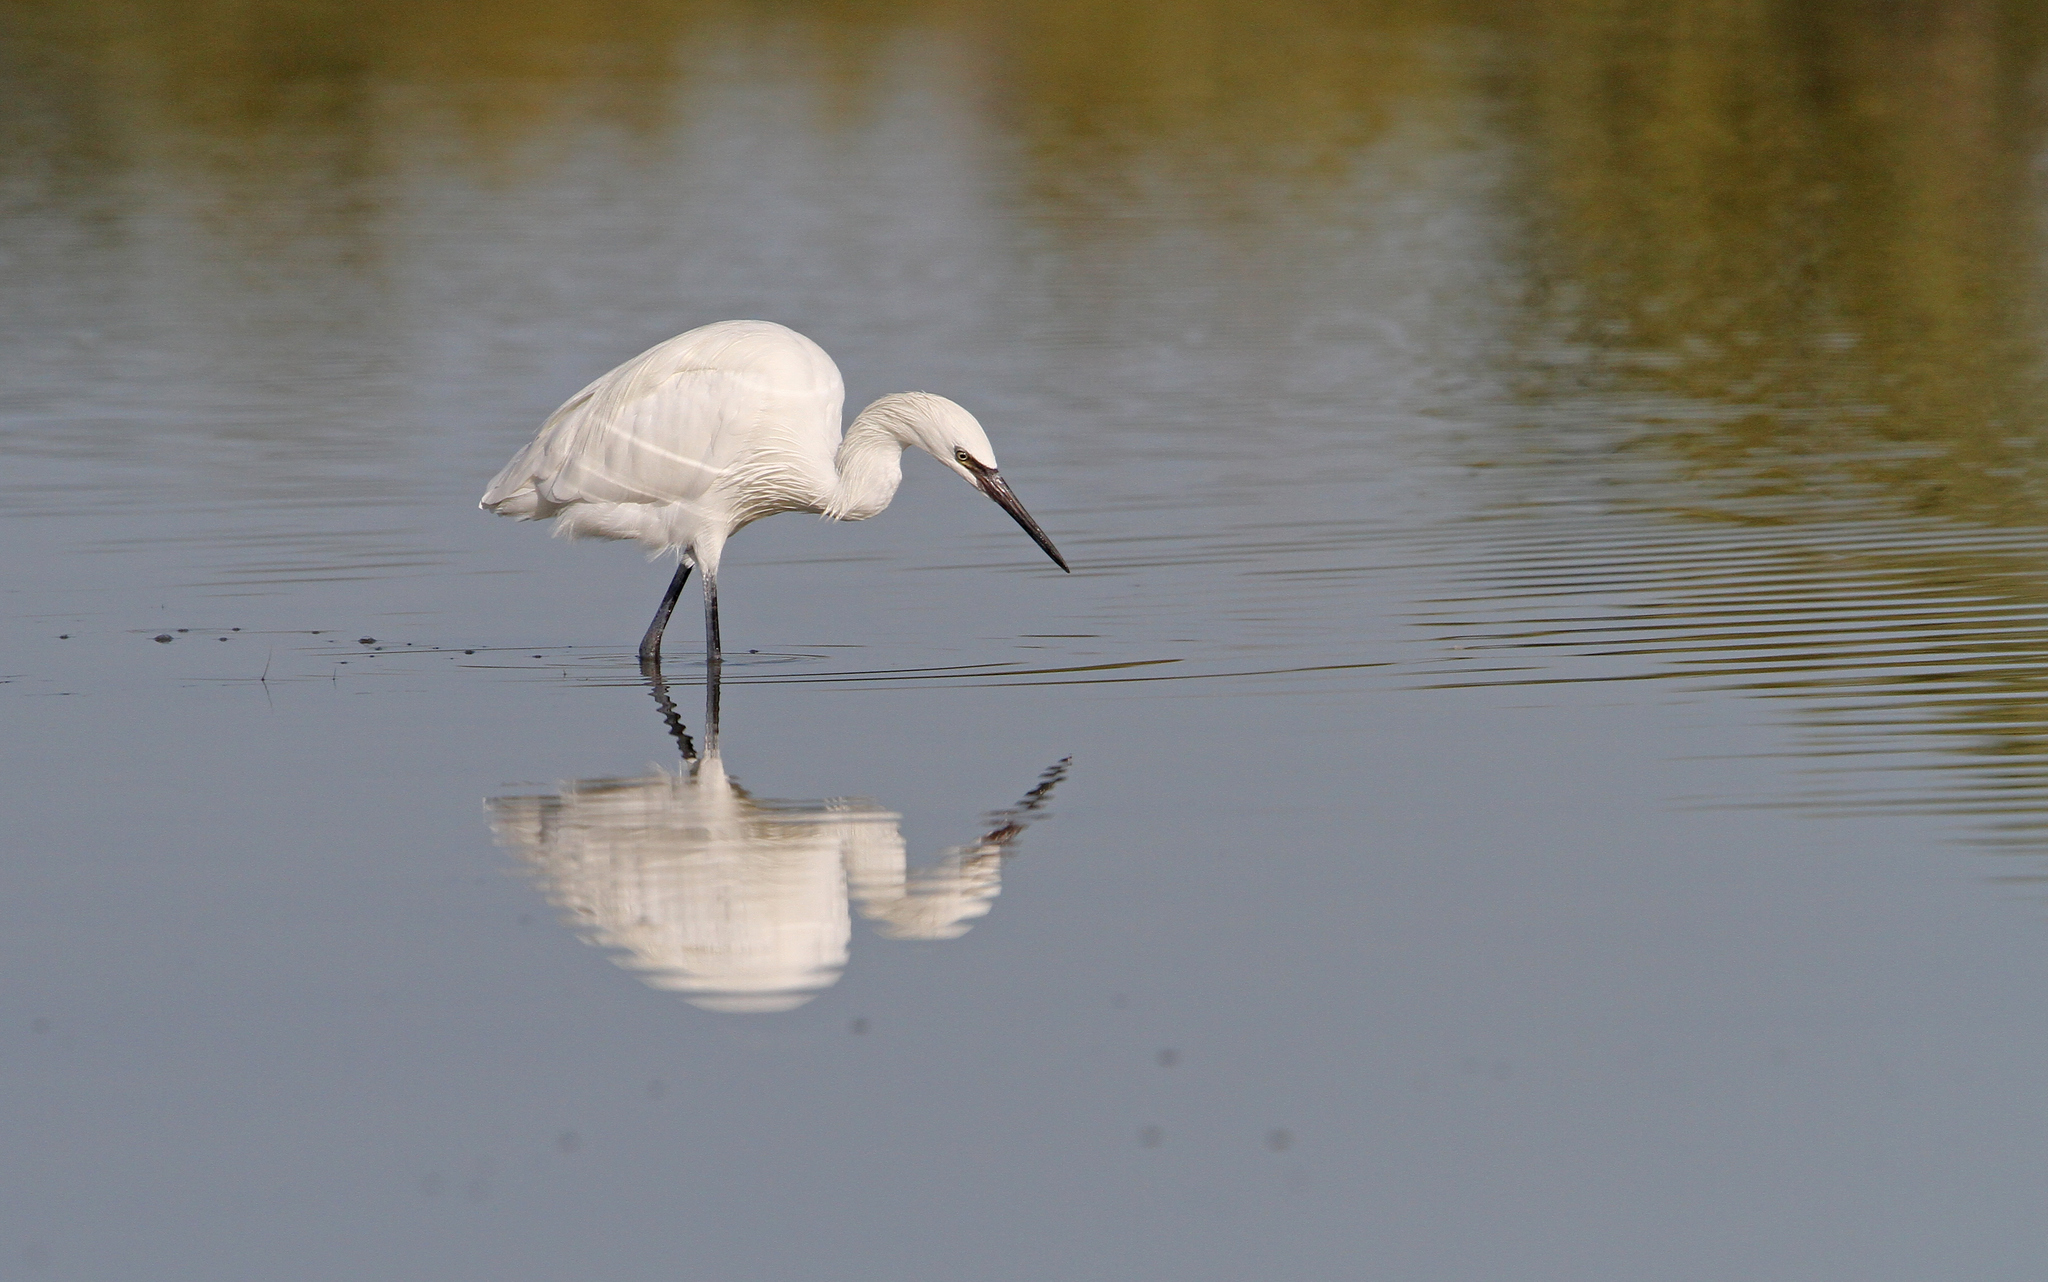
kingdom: Animalia
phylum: Chordata
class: Aves
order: Pelecaniformes
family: Ardeidae
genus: Egretta
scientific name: Egretta rufescens
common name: Reddish egret
